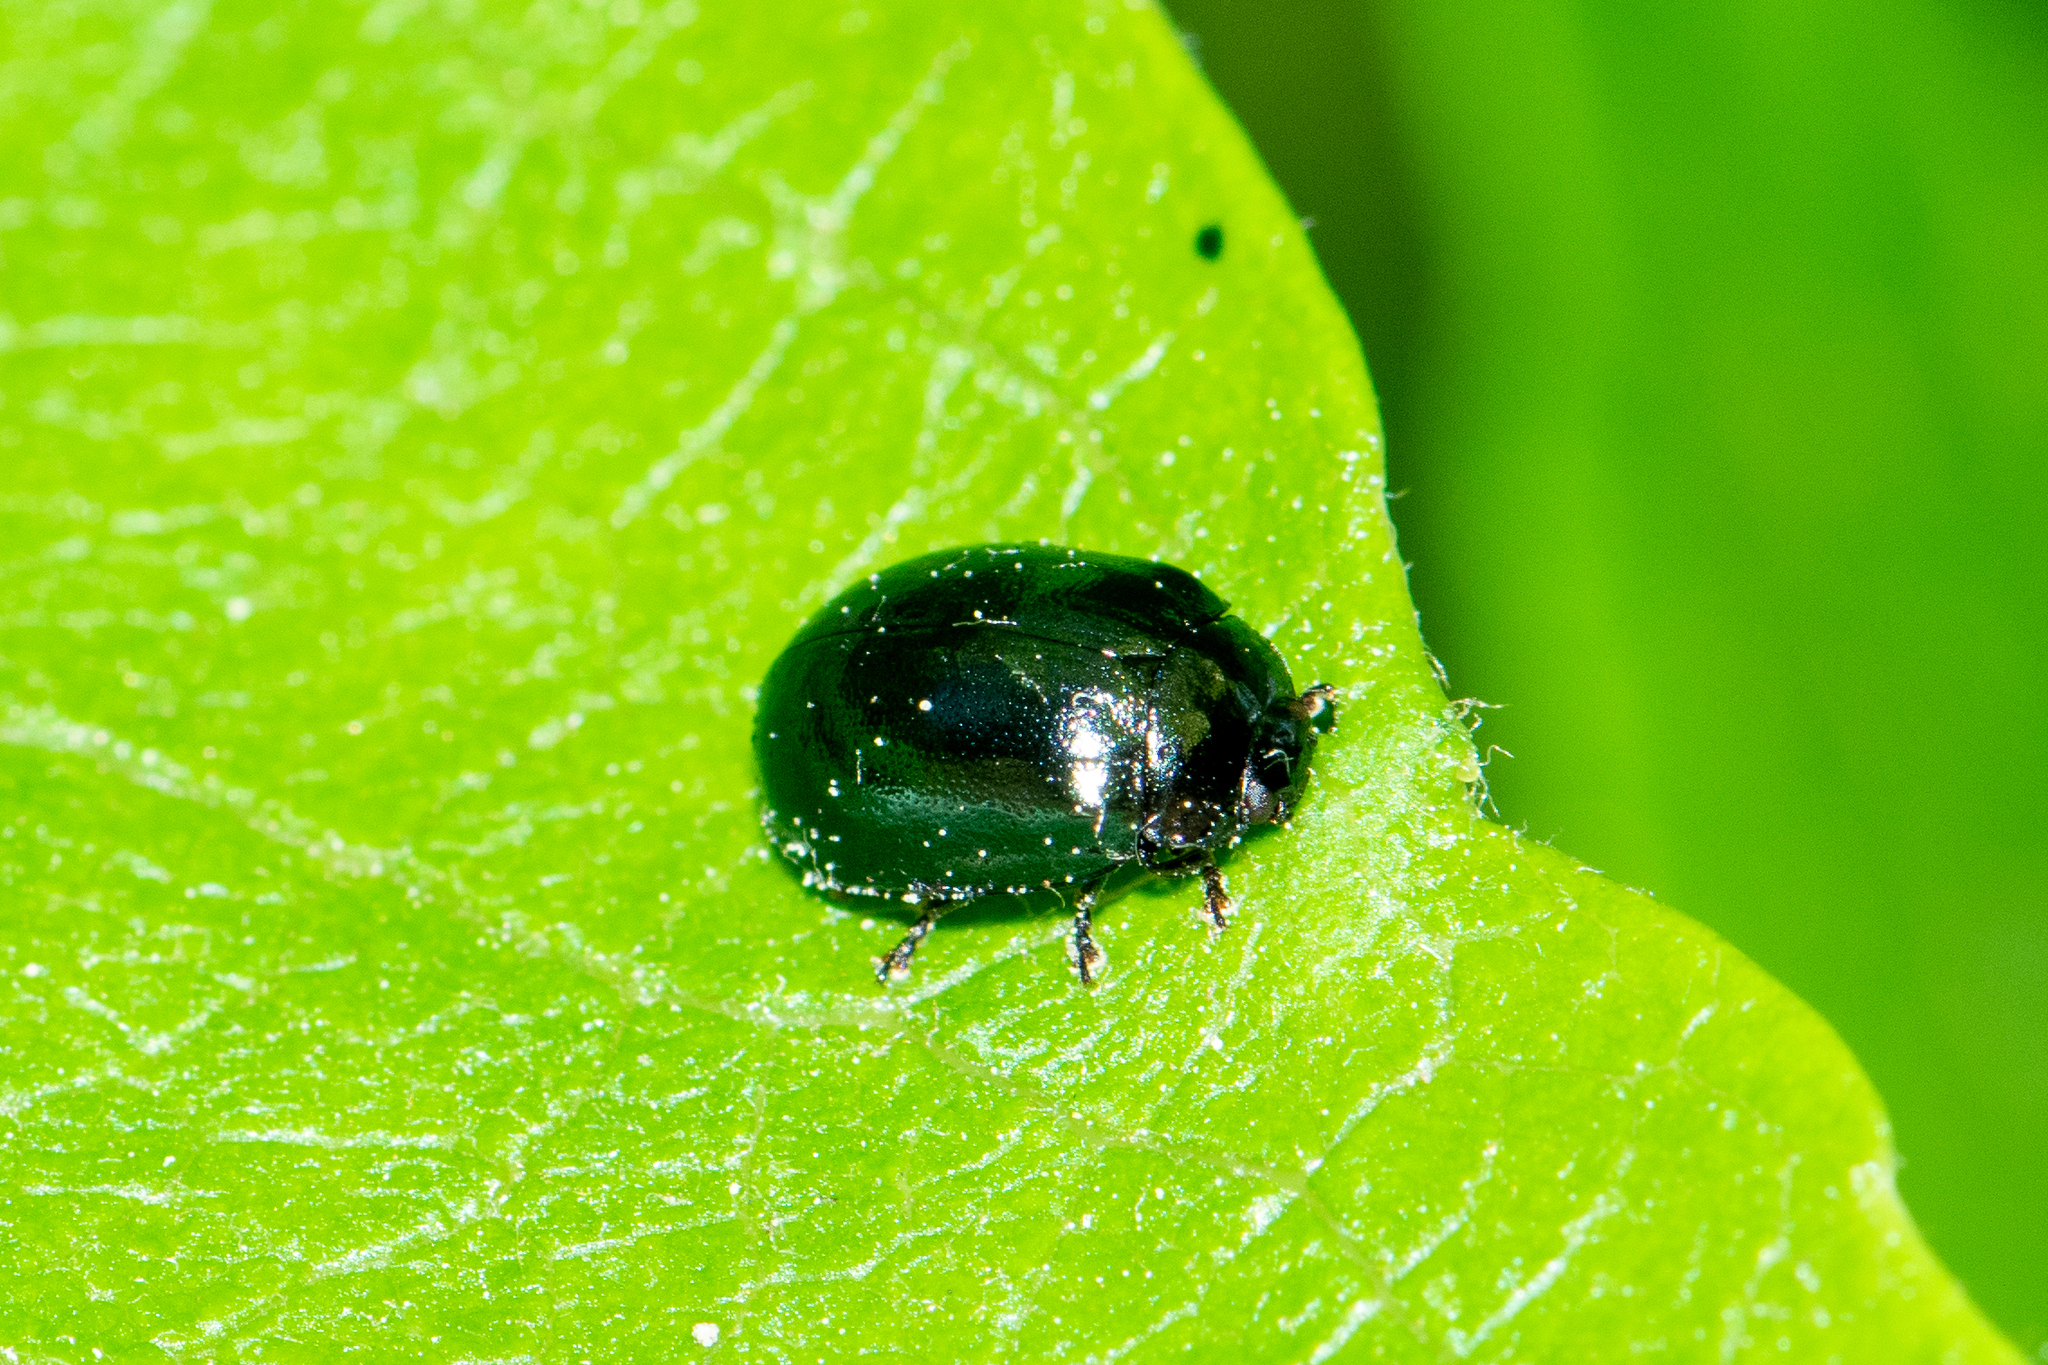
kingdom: Animalia
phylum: Arthropoda
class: Insecta
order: Coleoptera
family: Chrysomelidae
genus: Plagiodera
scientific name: Plagiodera versicolora
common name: Imported willow leaf beetle
